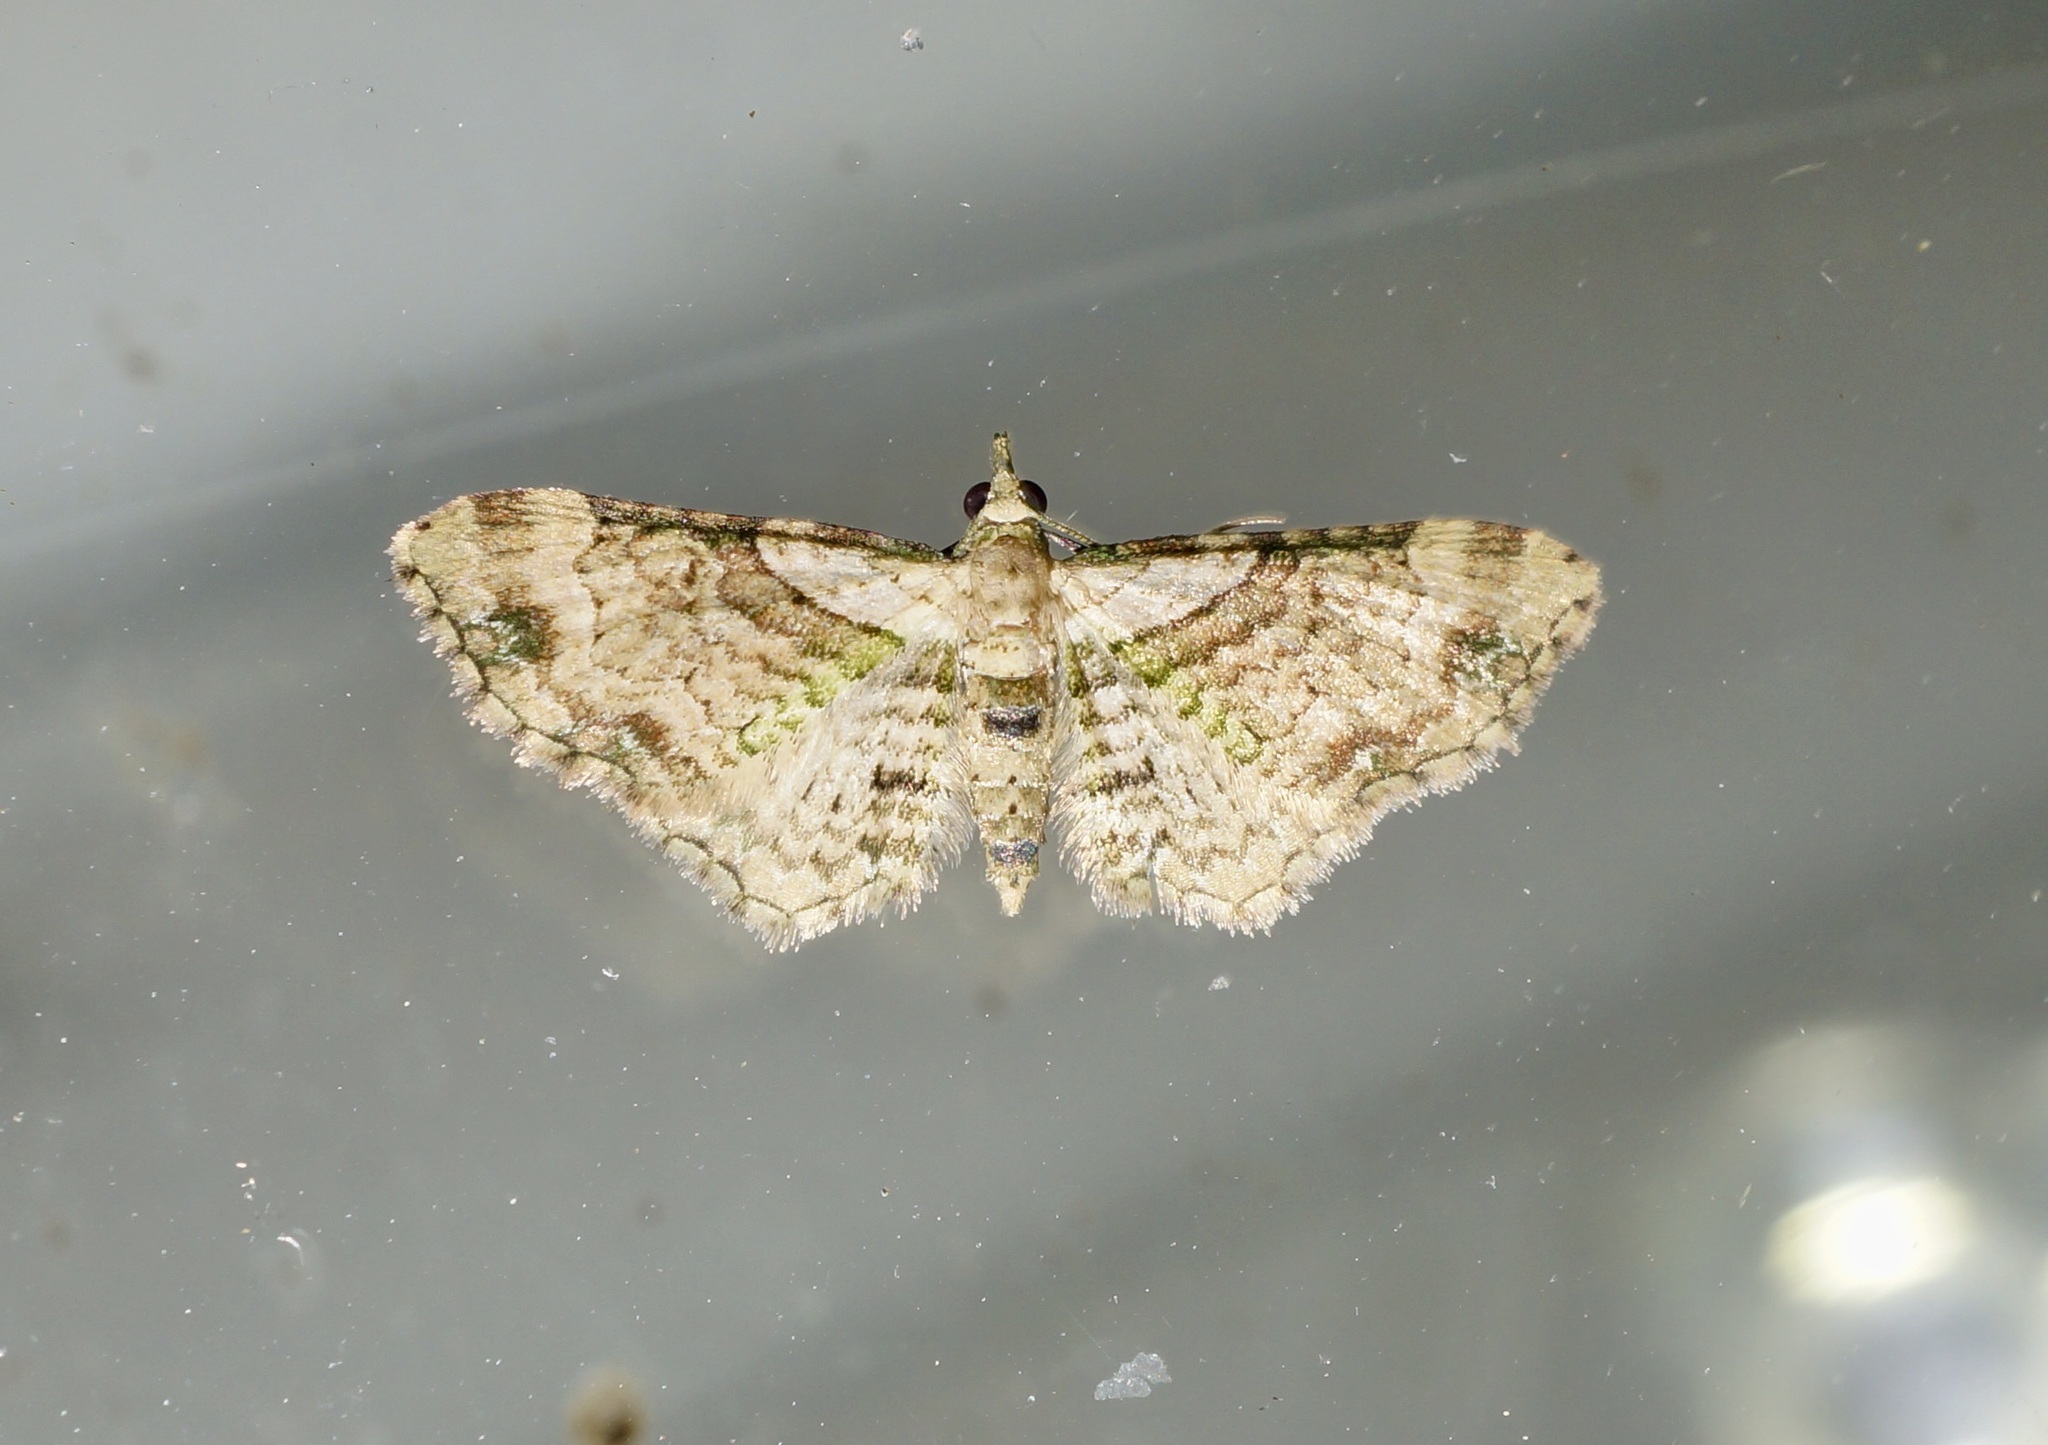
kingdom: Animalia
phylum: Arthropoda
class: Insecta
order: Lepidoptera
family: Geometridae
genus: Chloroclystis
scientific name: Chloroclystis
